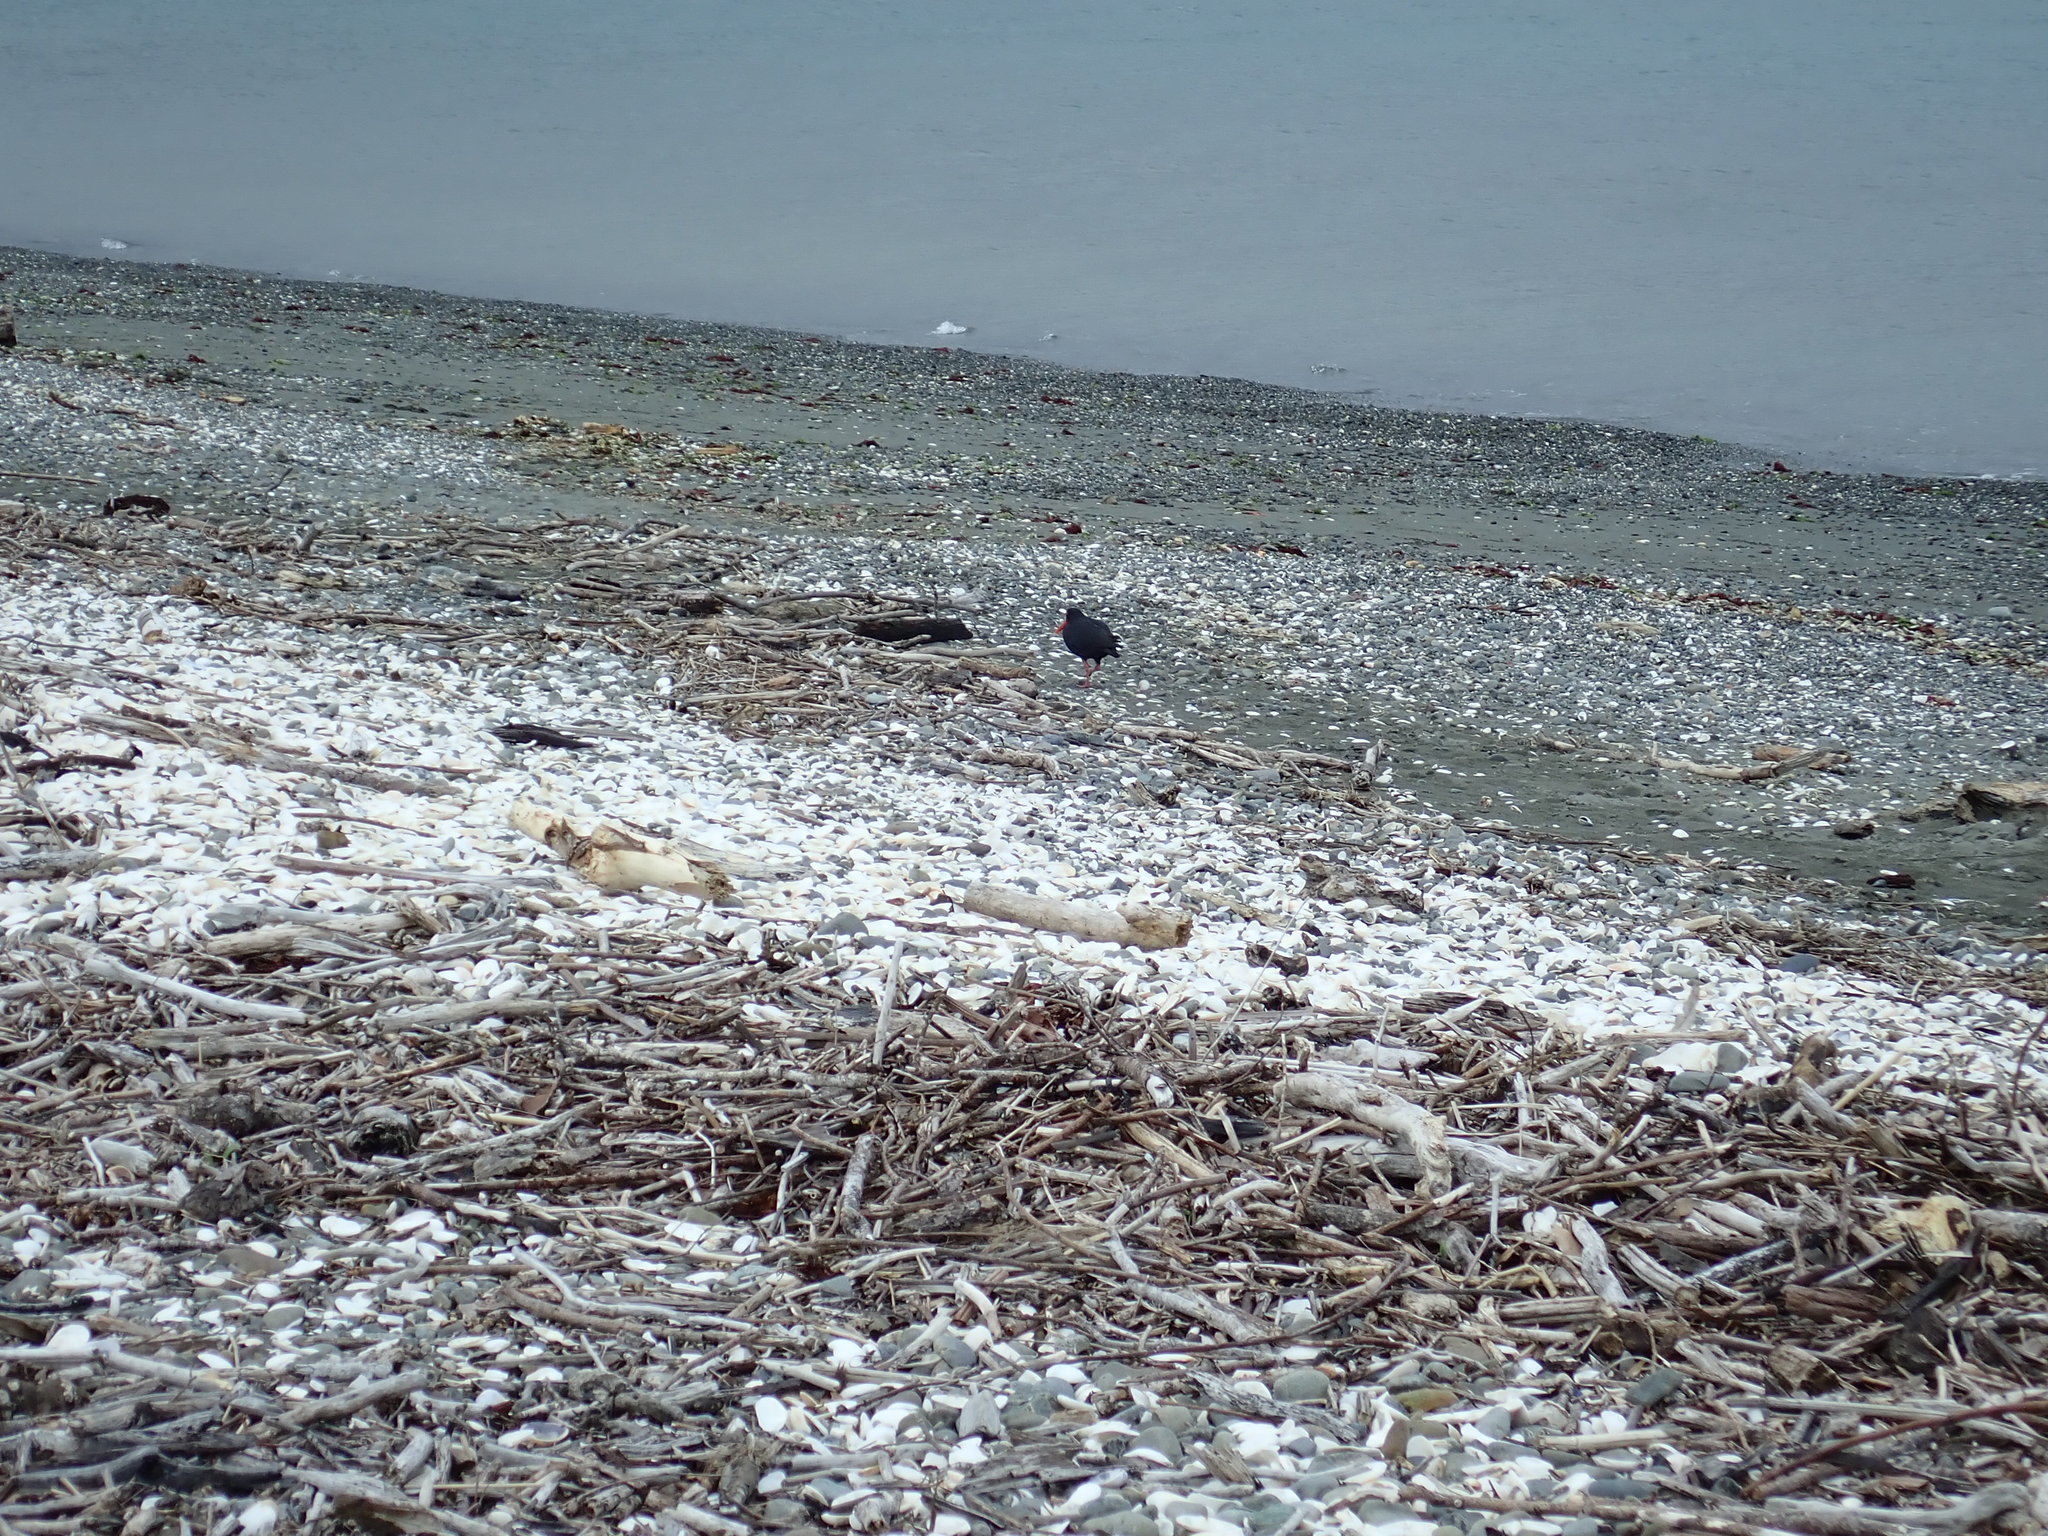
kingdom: Animalia
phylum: Chordata
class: Aves
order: Charadriiformes
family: Haematopodidae
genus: Haematopus
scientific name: Haematopus unicolor
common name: Variable oystercatcher
